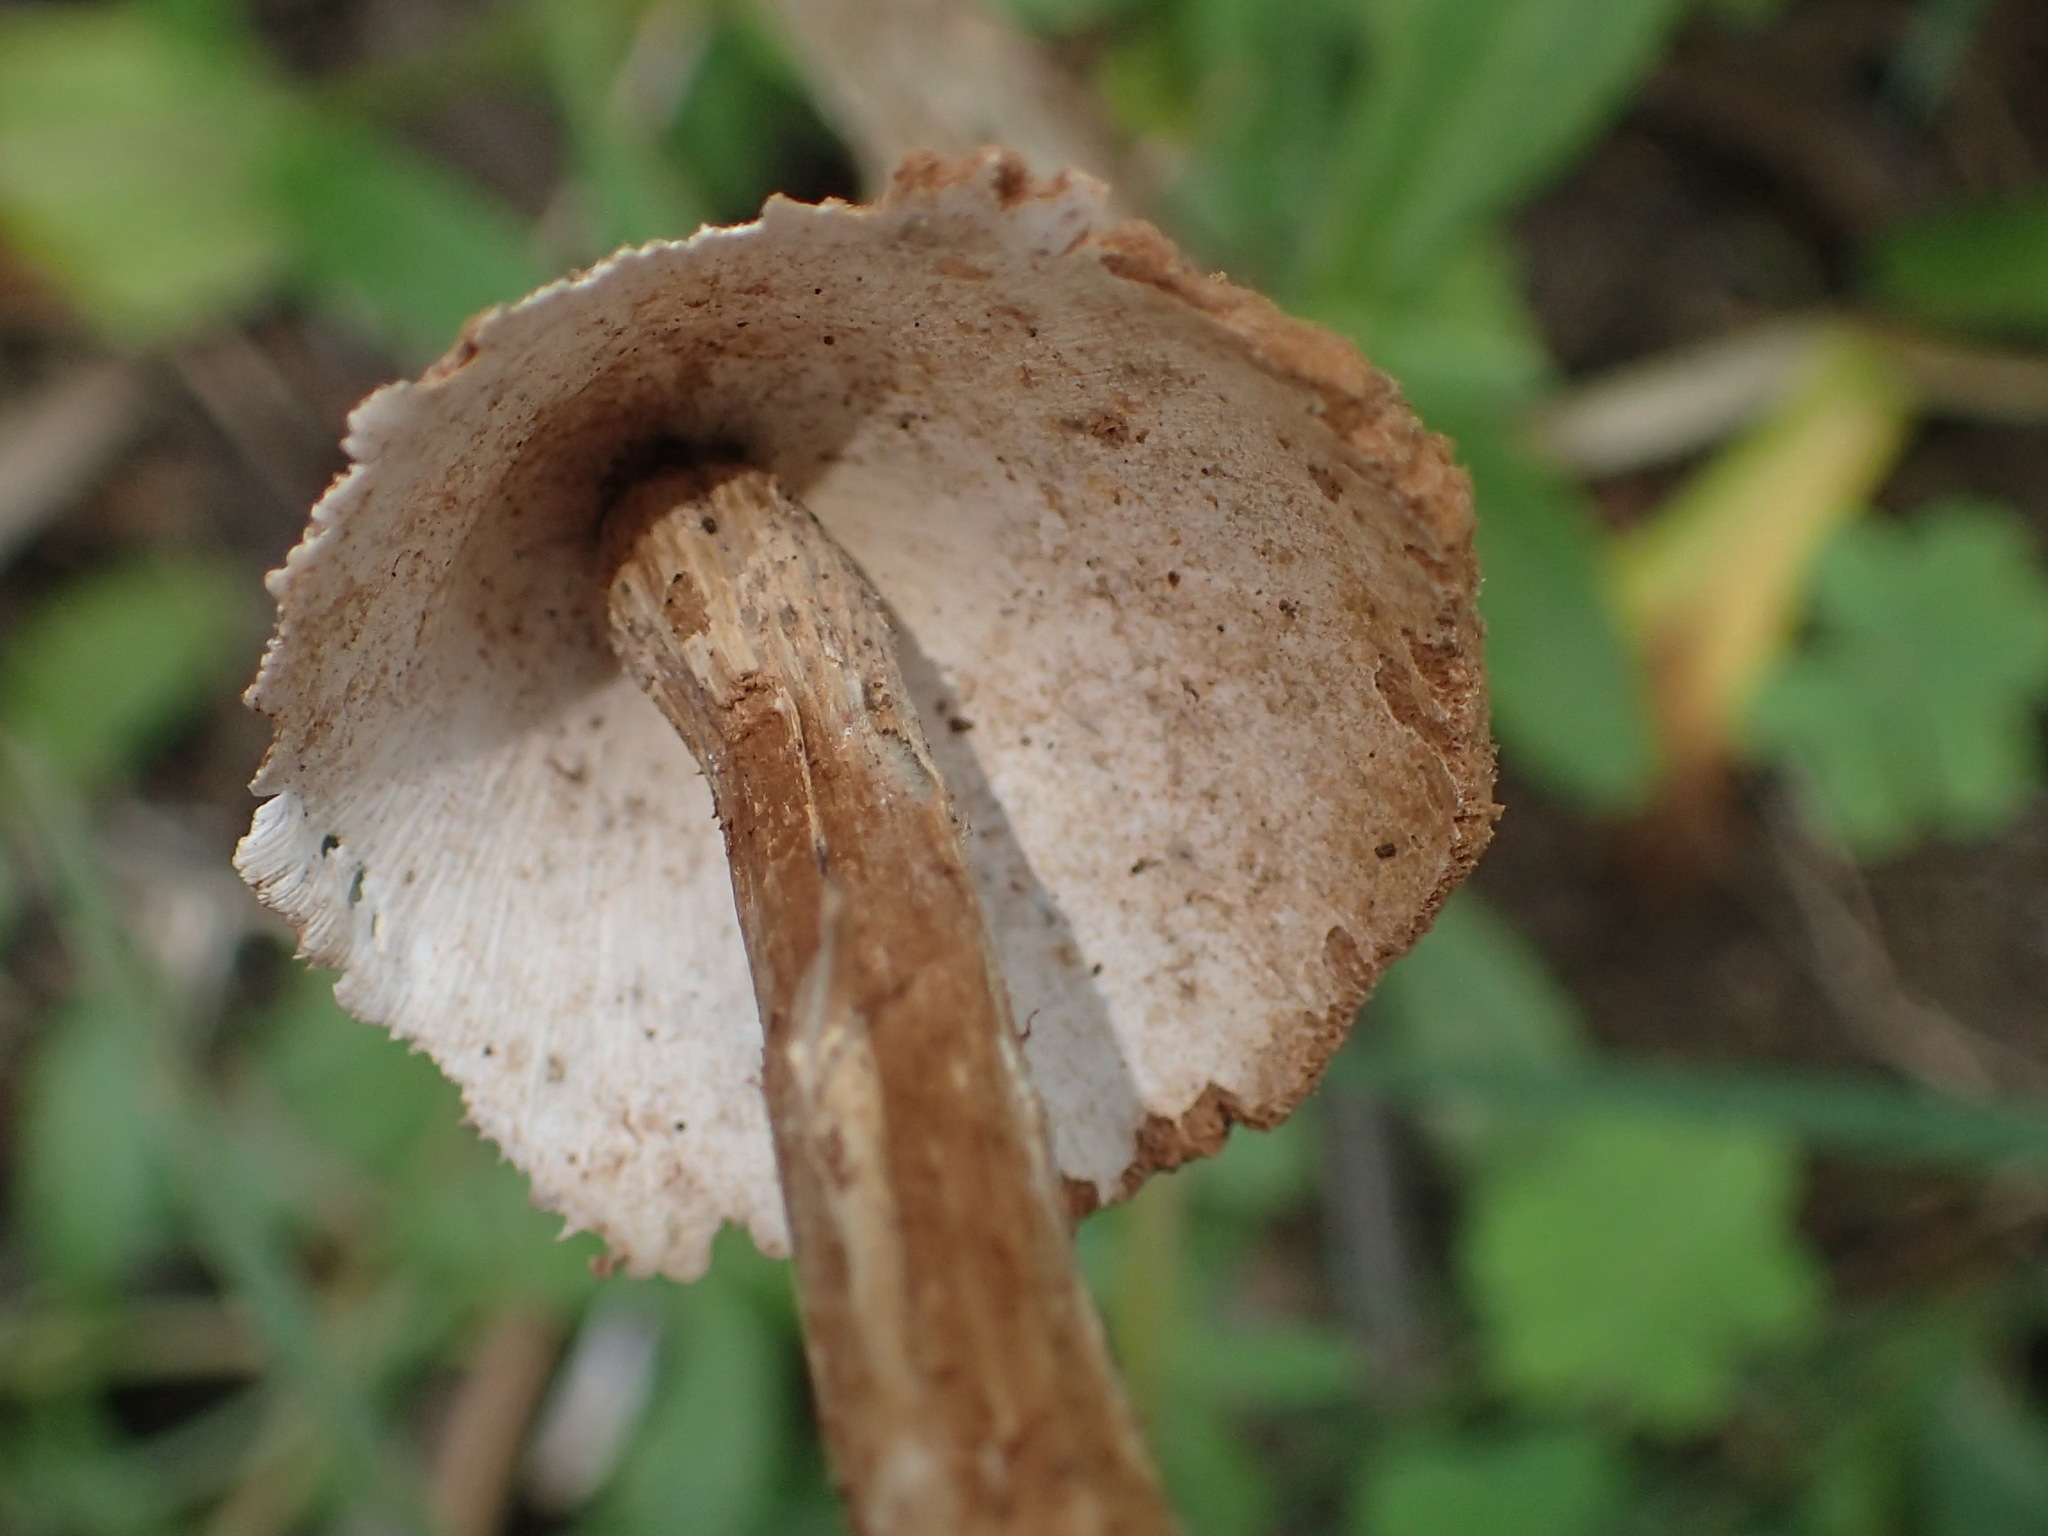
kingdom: Fungi
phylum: Basidiomycota
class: Agaricomycetes
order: Agaricales
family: Agaricaceae
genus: Battarrea
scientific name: Battarrea phalloides
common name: Sandy stiltball
